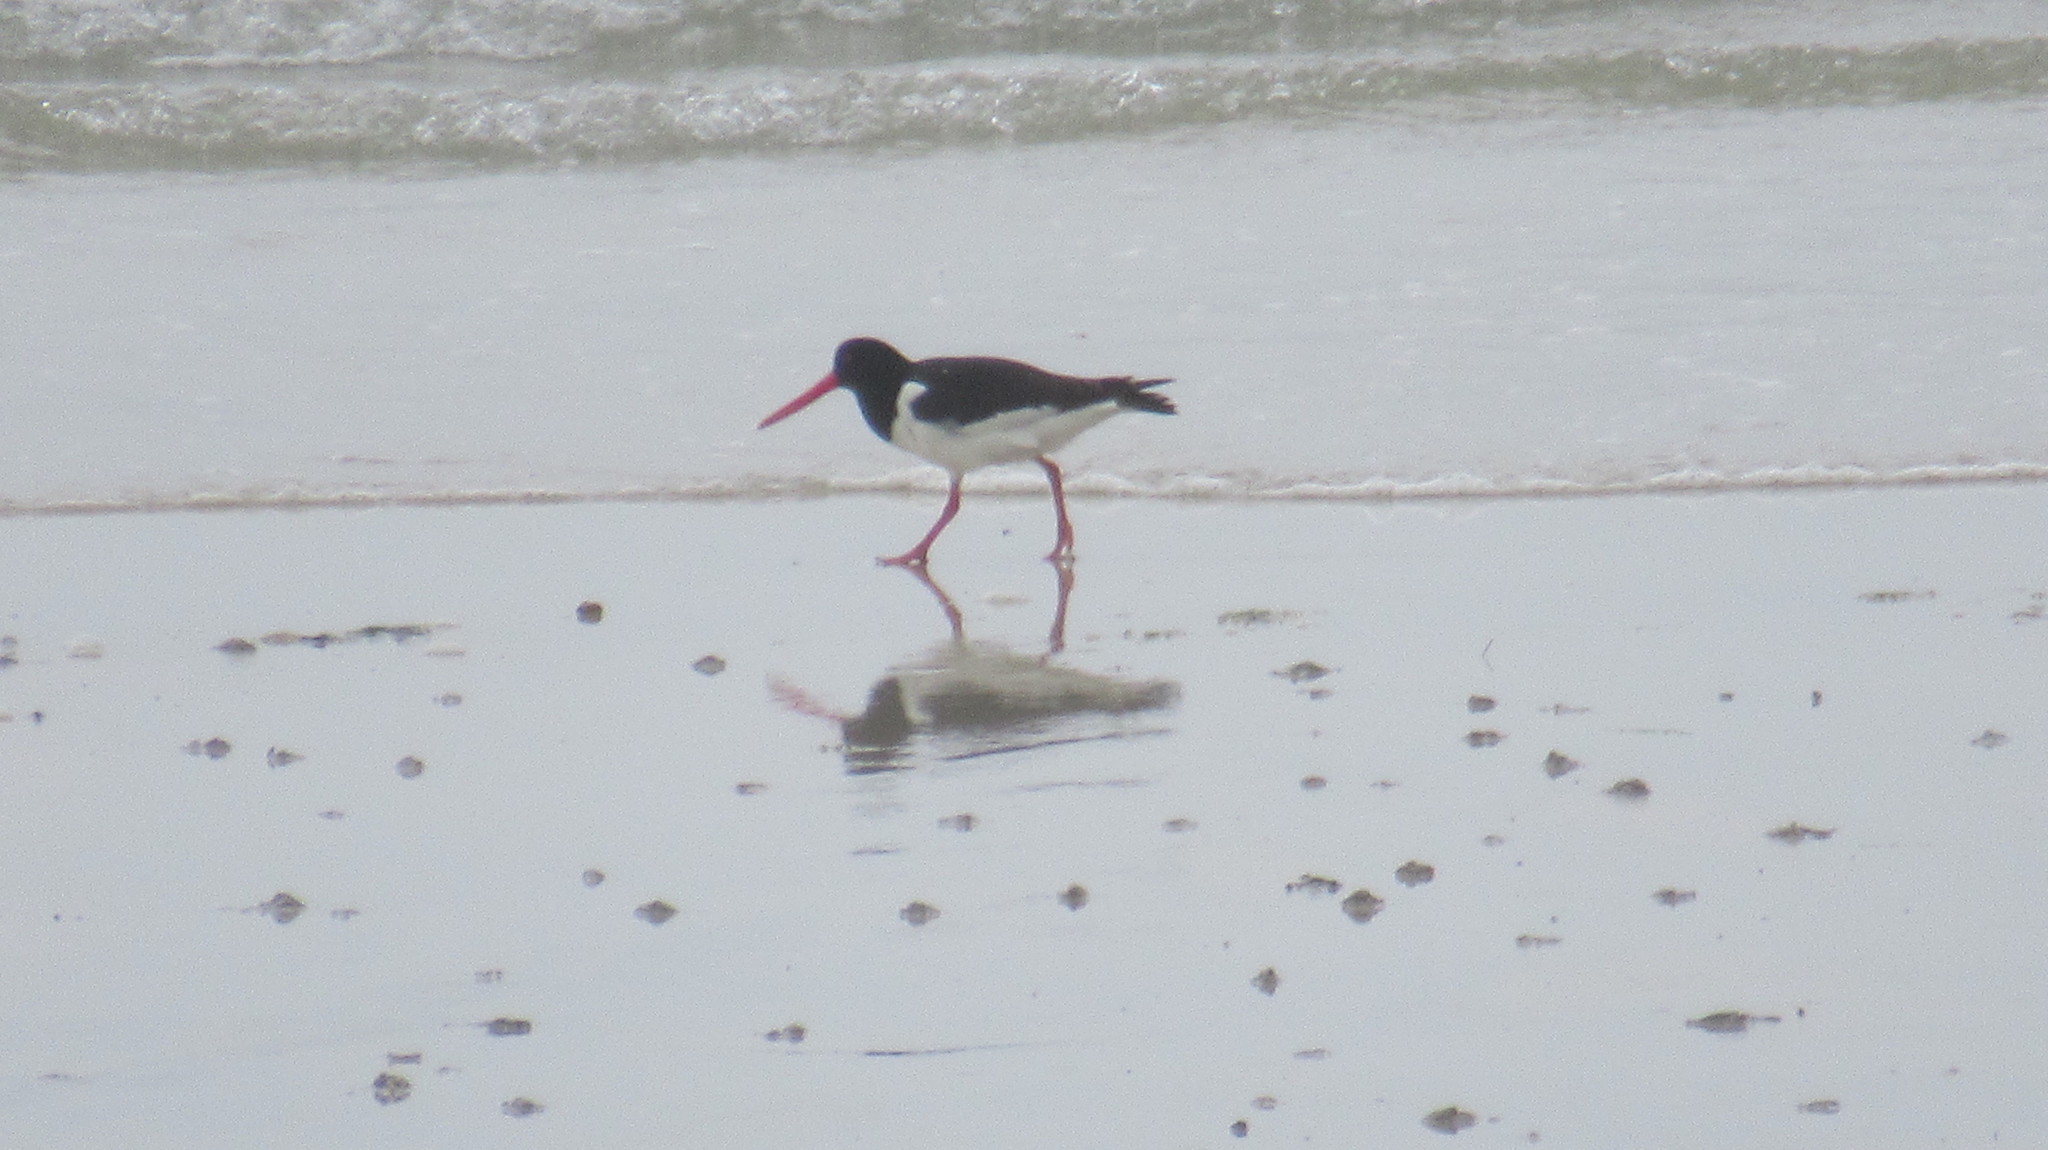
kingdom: Animalia
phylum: Chordata
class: Aves
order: Charadriiformes
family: Haematopodidae
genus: Haematopus
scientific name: Haematopus ostralegus
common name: Eurasian oystercatcher
